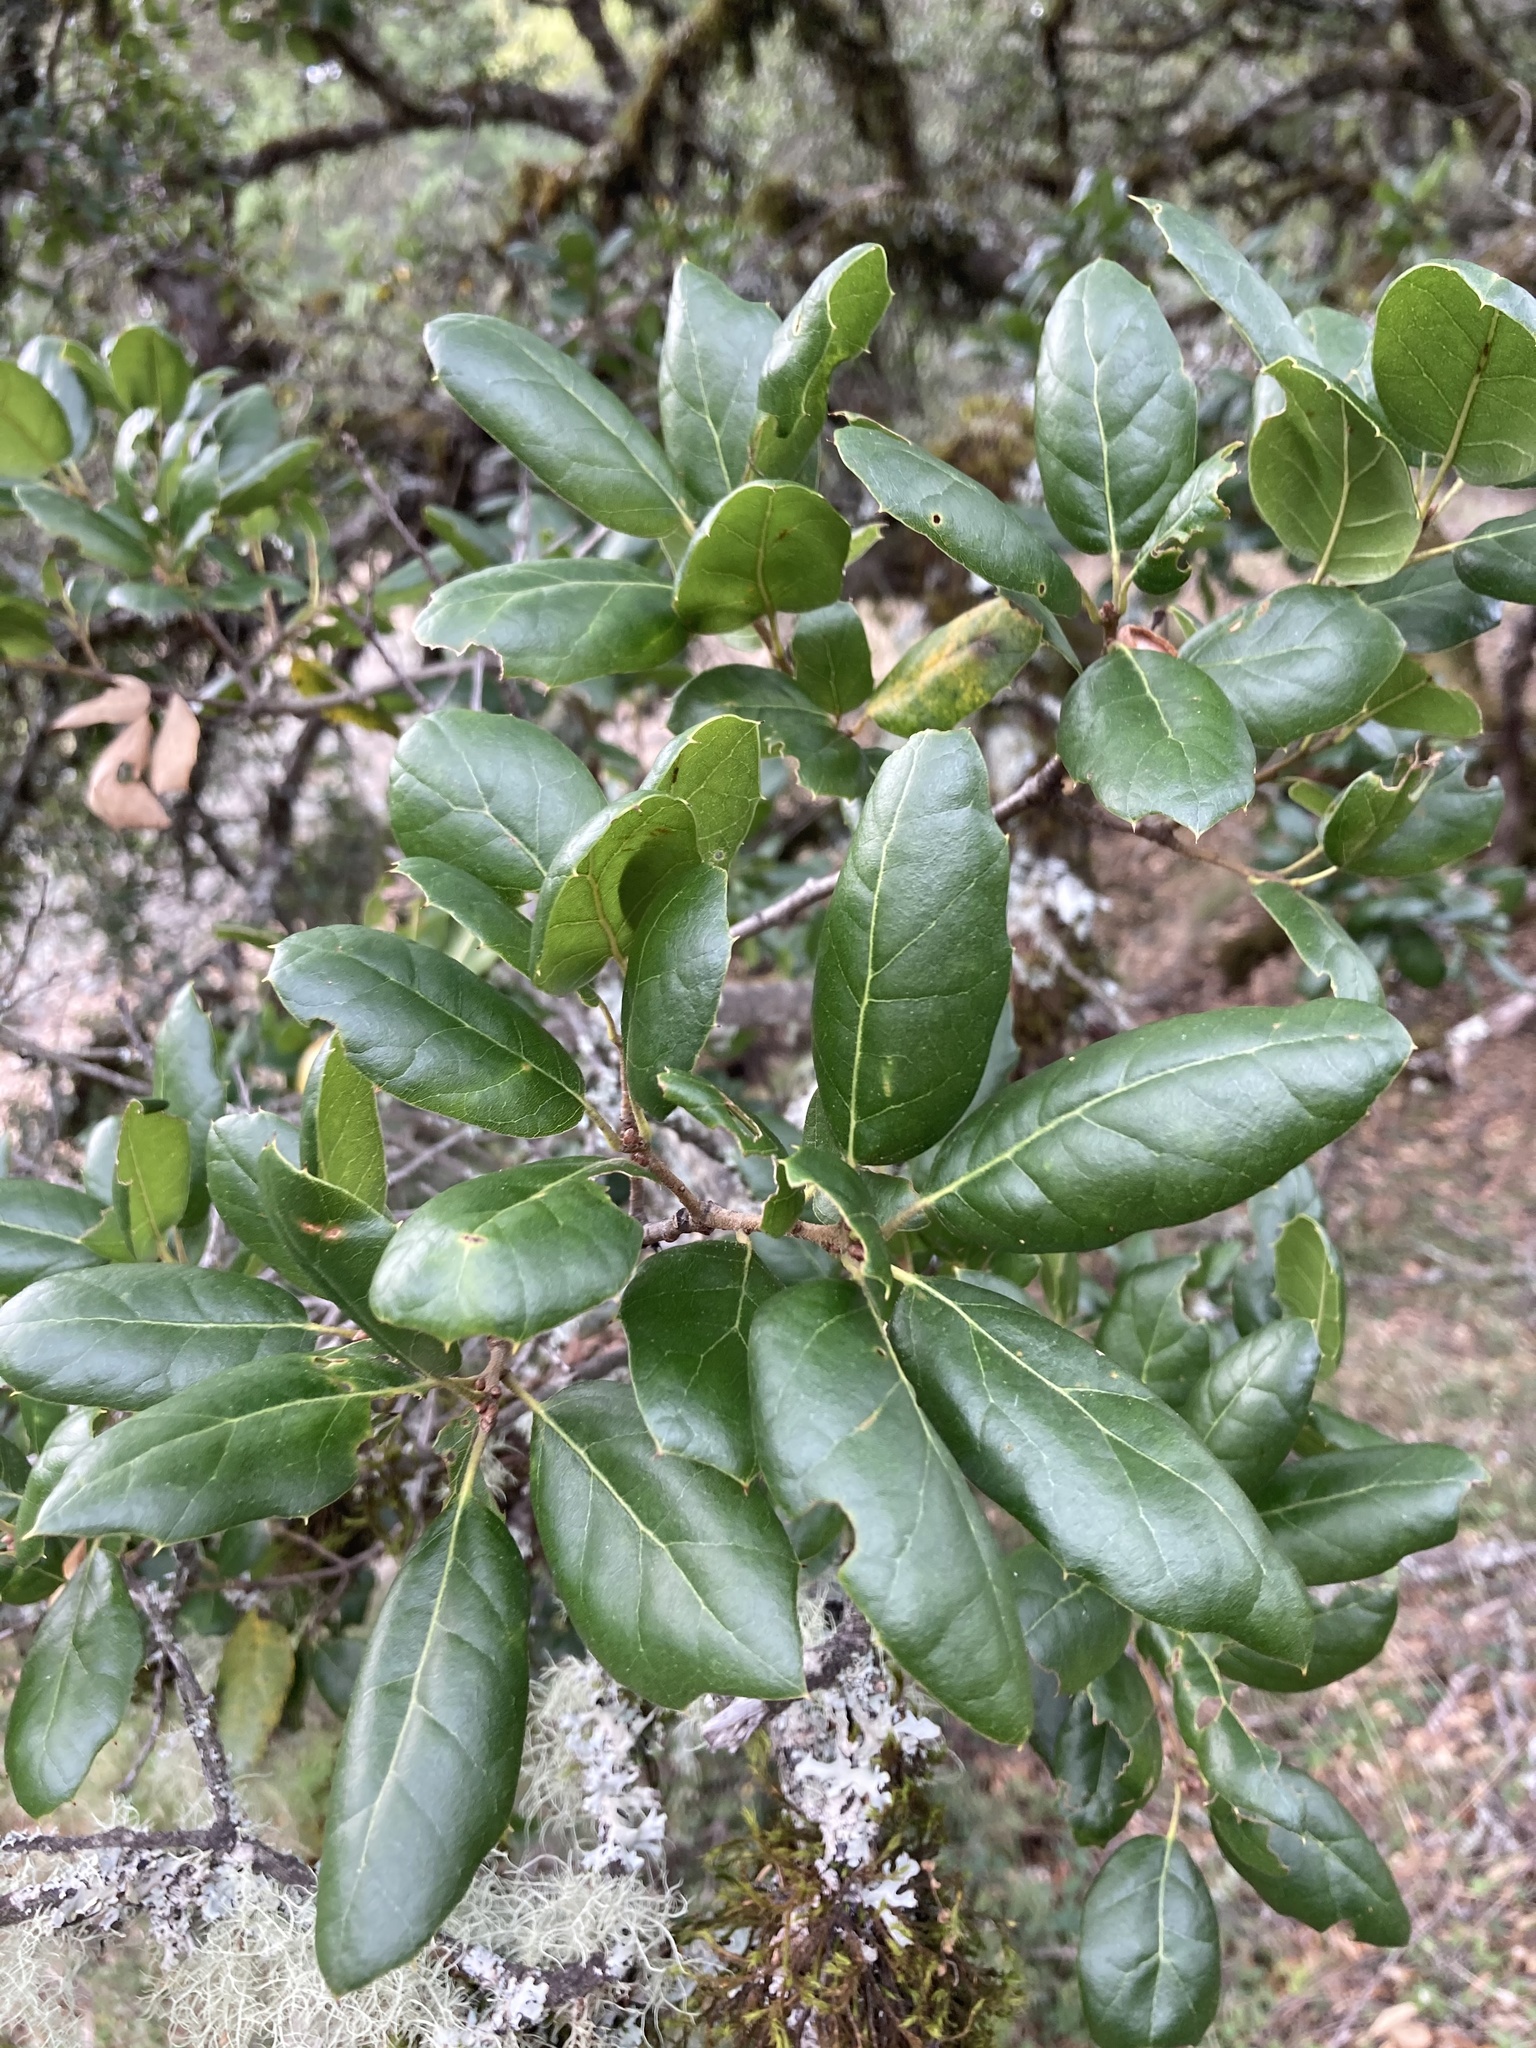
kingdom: Plantae
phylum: Tracheophyta
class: Magnoliopsida
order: Fagales
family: Fagaceae
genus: Quercus
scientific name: Quercus agrifolia
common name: California live oak
